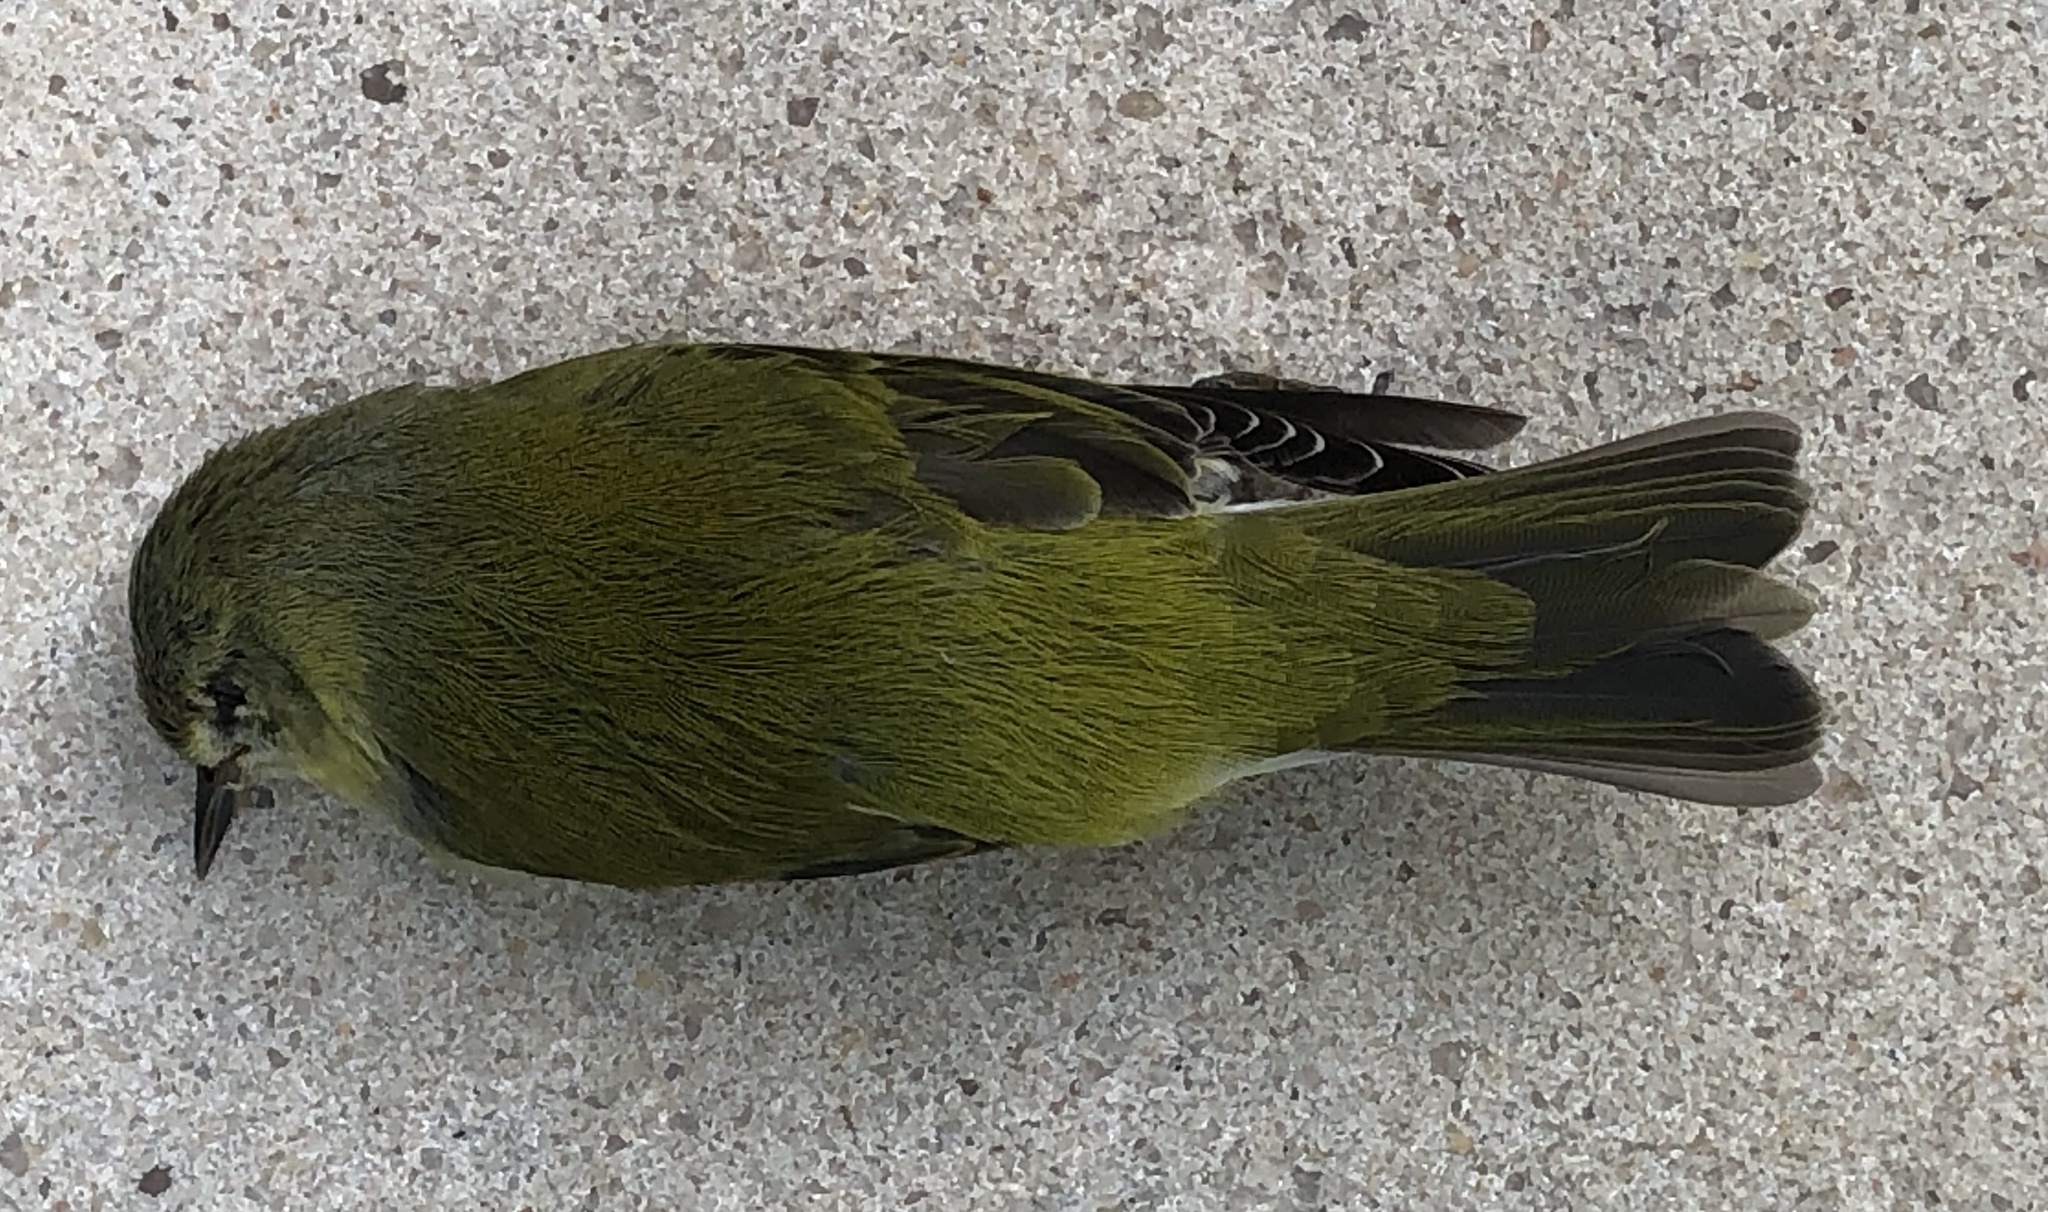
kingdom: Animalia
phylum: Chordata
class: Aves
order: Passeriformes
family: Parulidae
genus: Leiothlypis
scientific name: Leiothlypis peregrina
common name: Tennessee warbler
